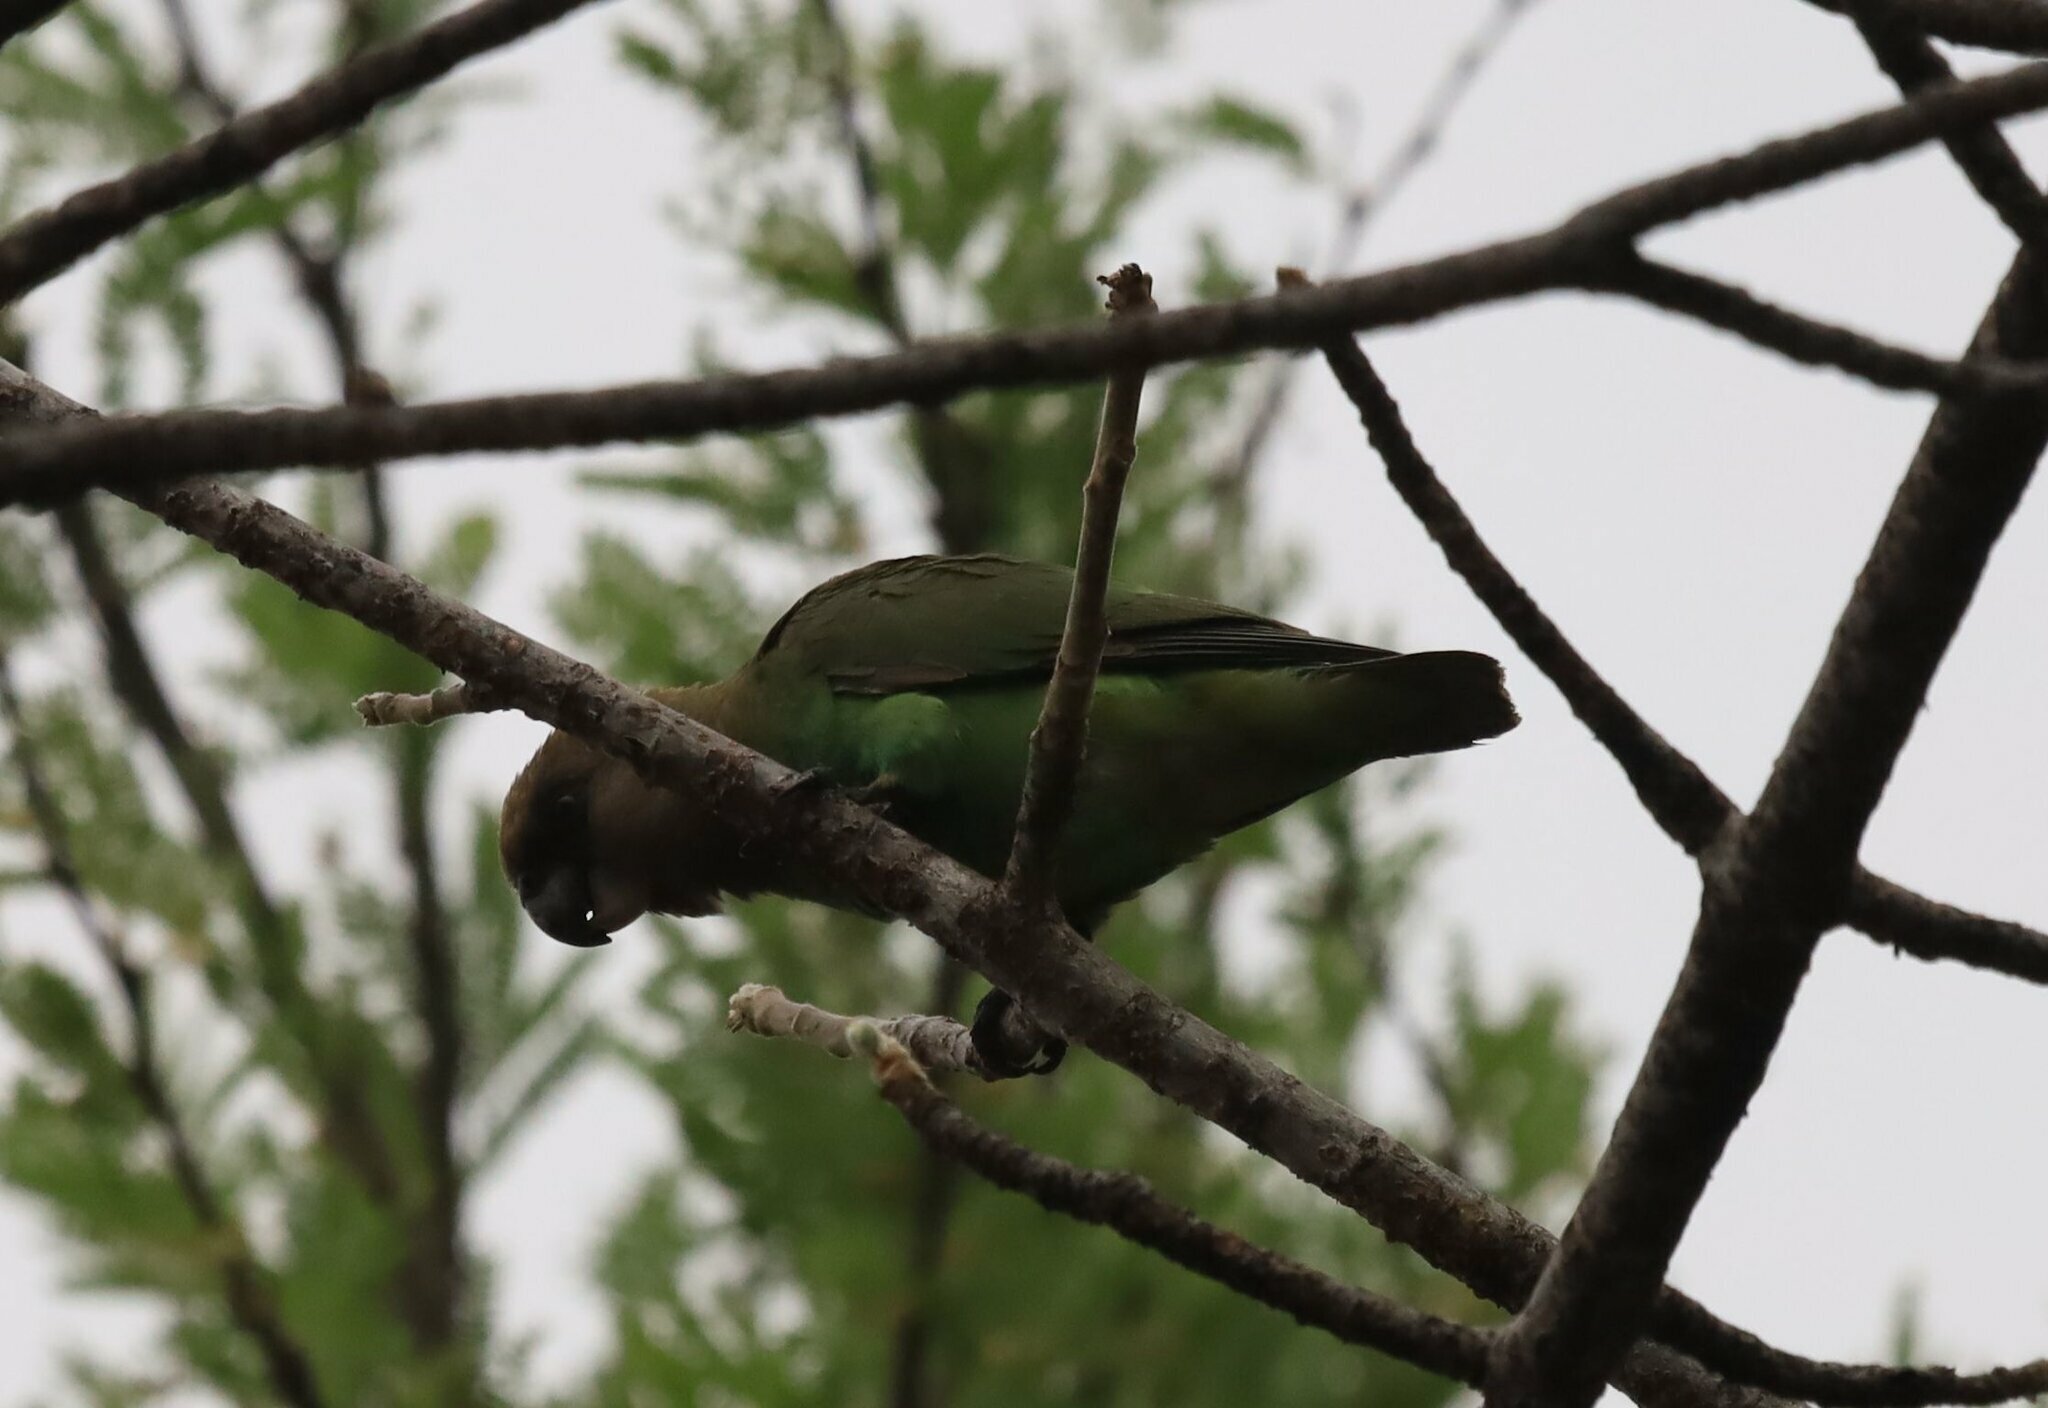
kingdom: Animalia
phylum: Chordata
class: Aves
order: Psittaciformes
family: Psittacidae
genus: Poicephalus
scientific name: Poicephalus cryptoxanthus
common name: Brown-headed parrot
